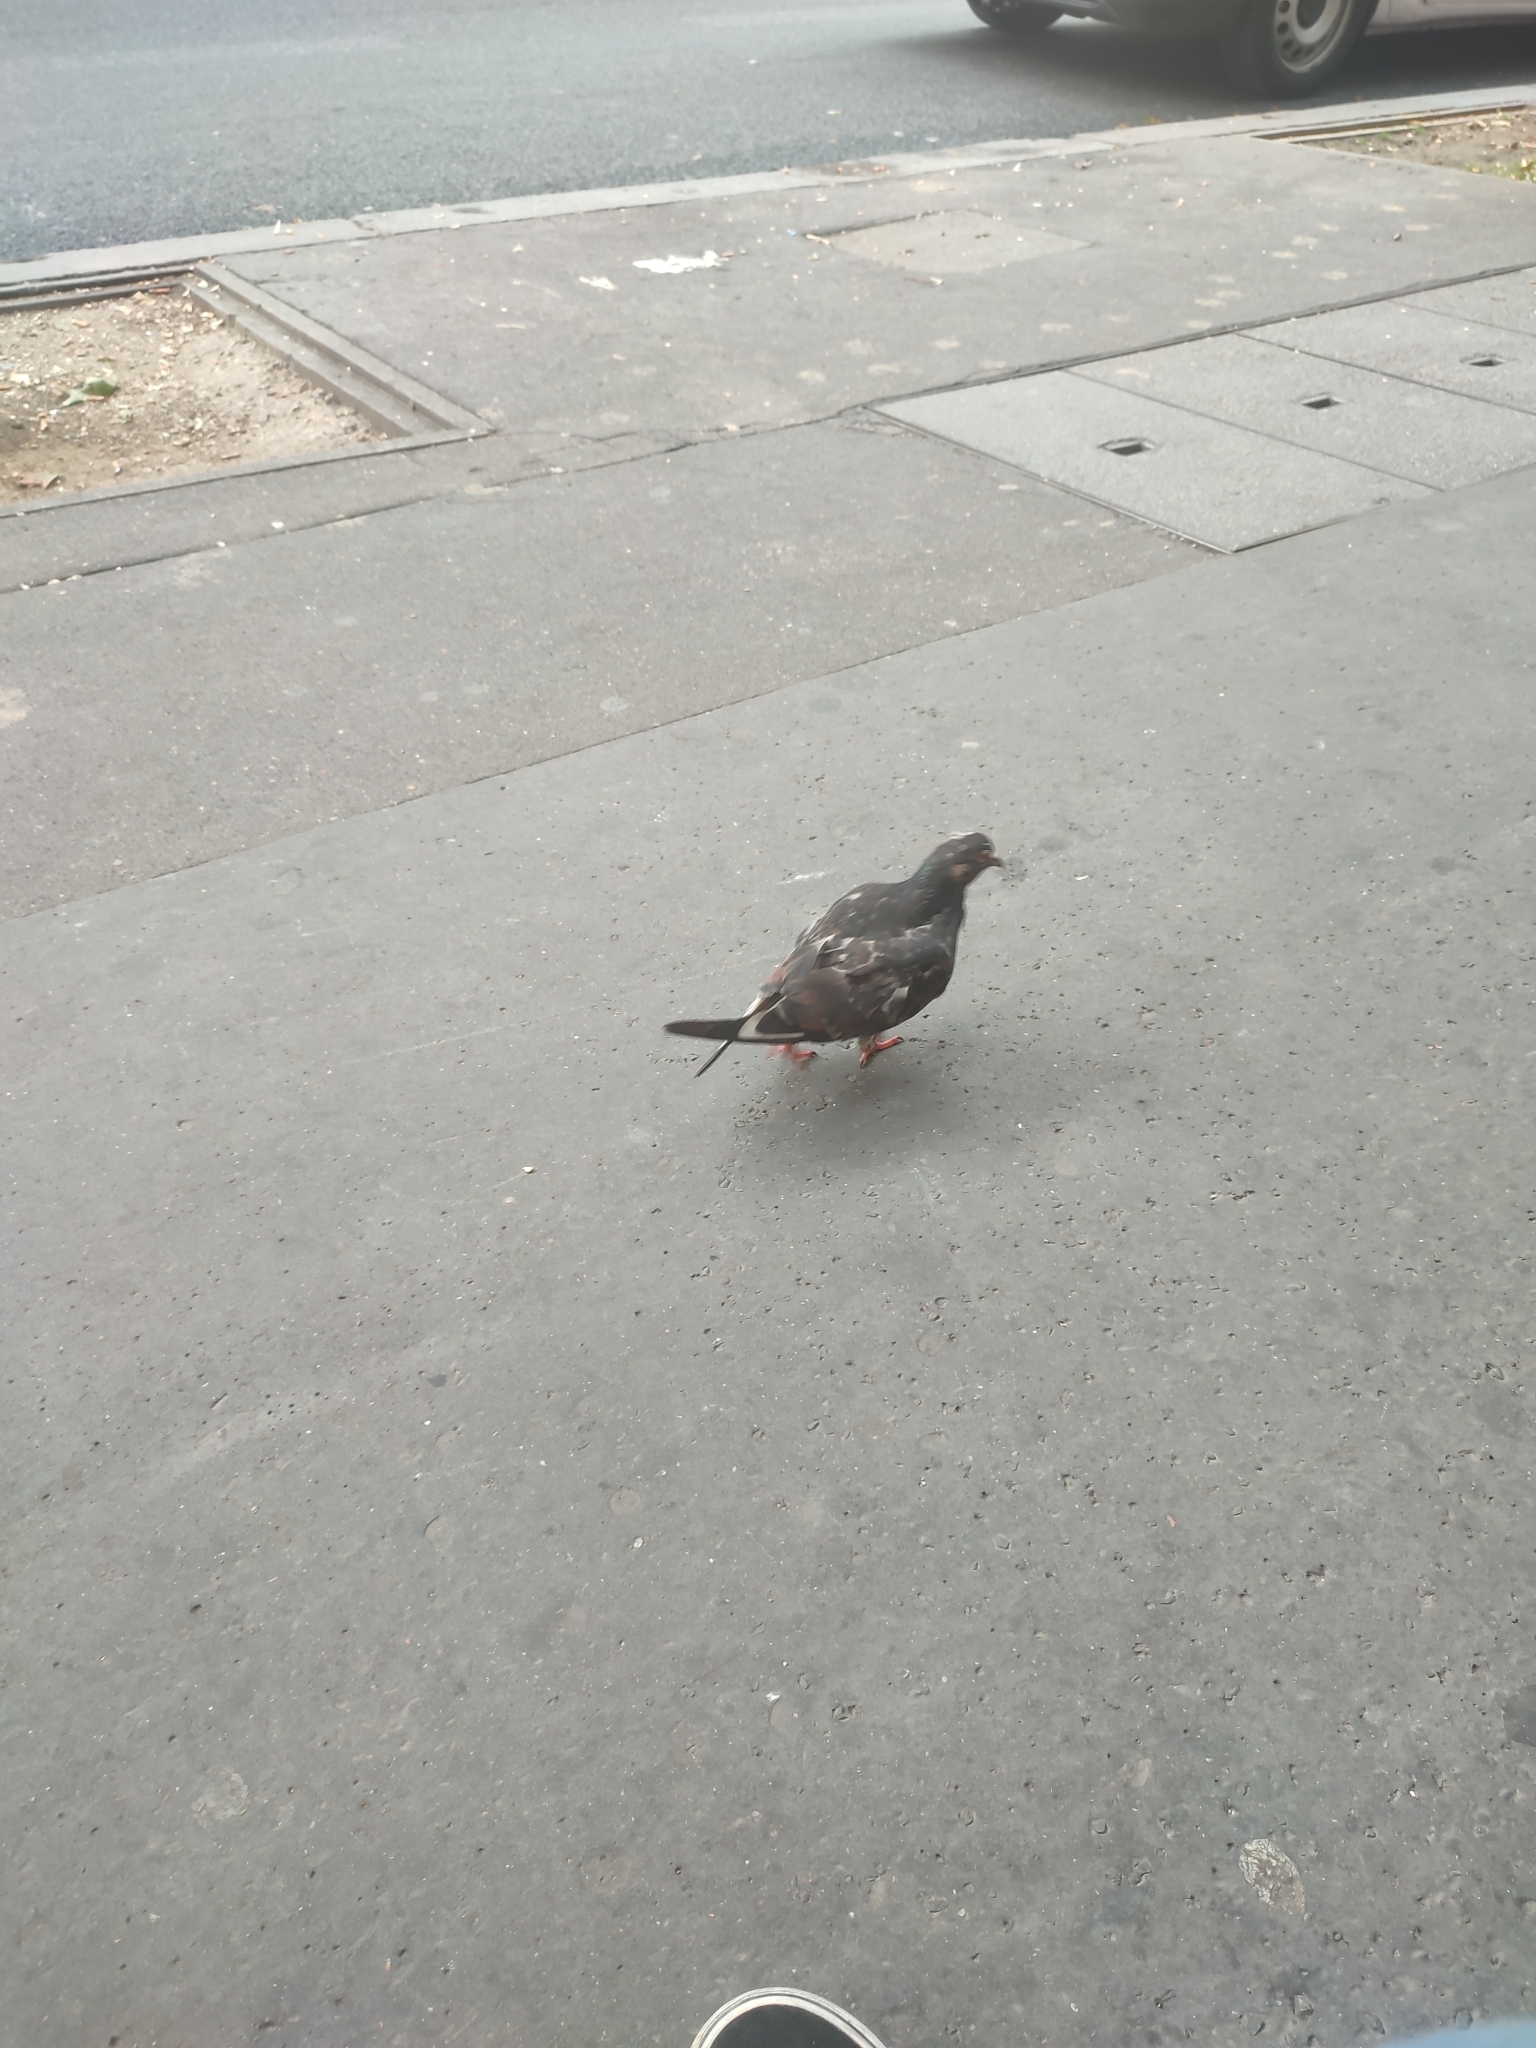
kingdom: Animalia
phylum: Chordata
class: Aves
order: Columbiformes
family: Columbidae
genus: Columba
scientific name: Columba livia
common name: Rock pigeon
